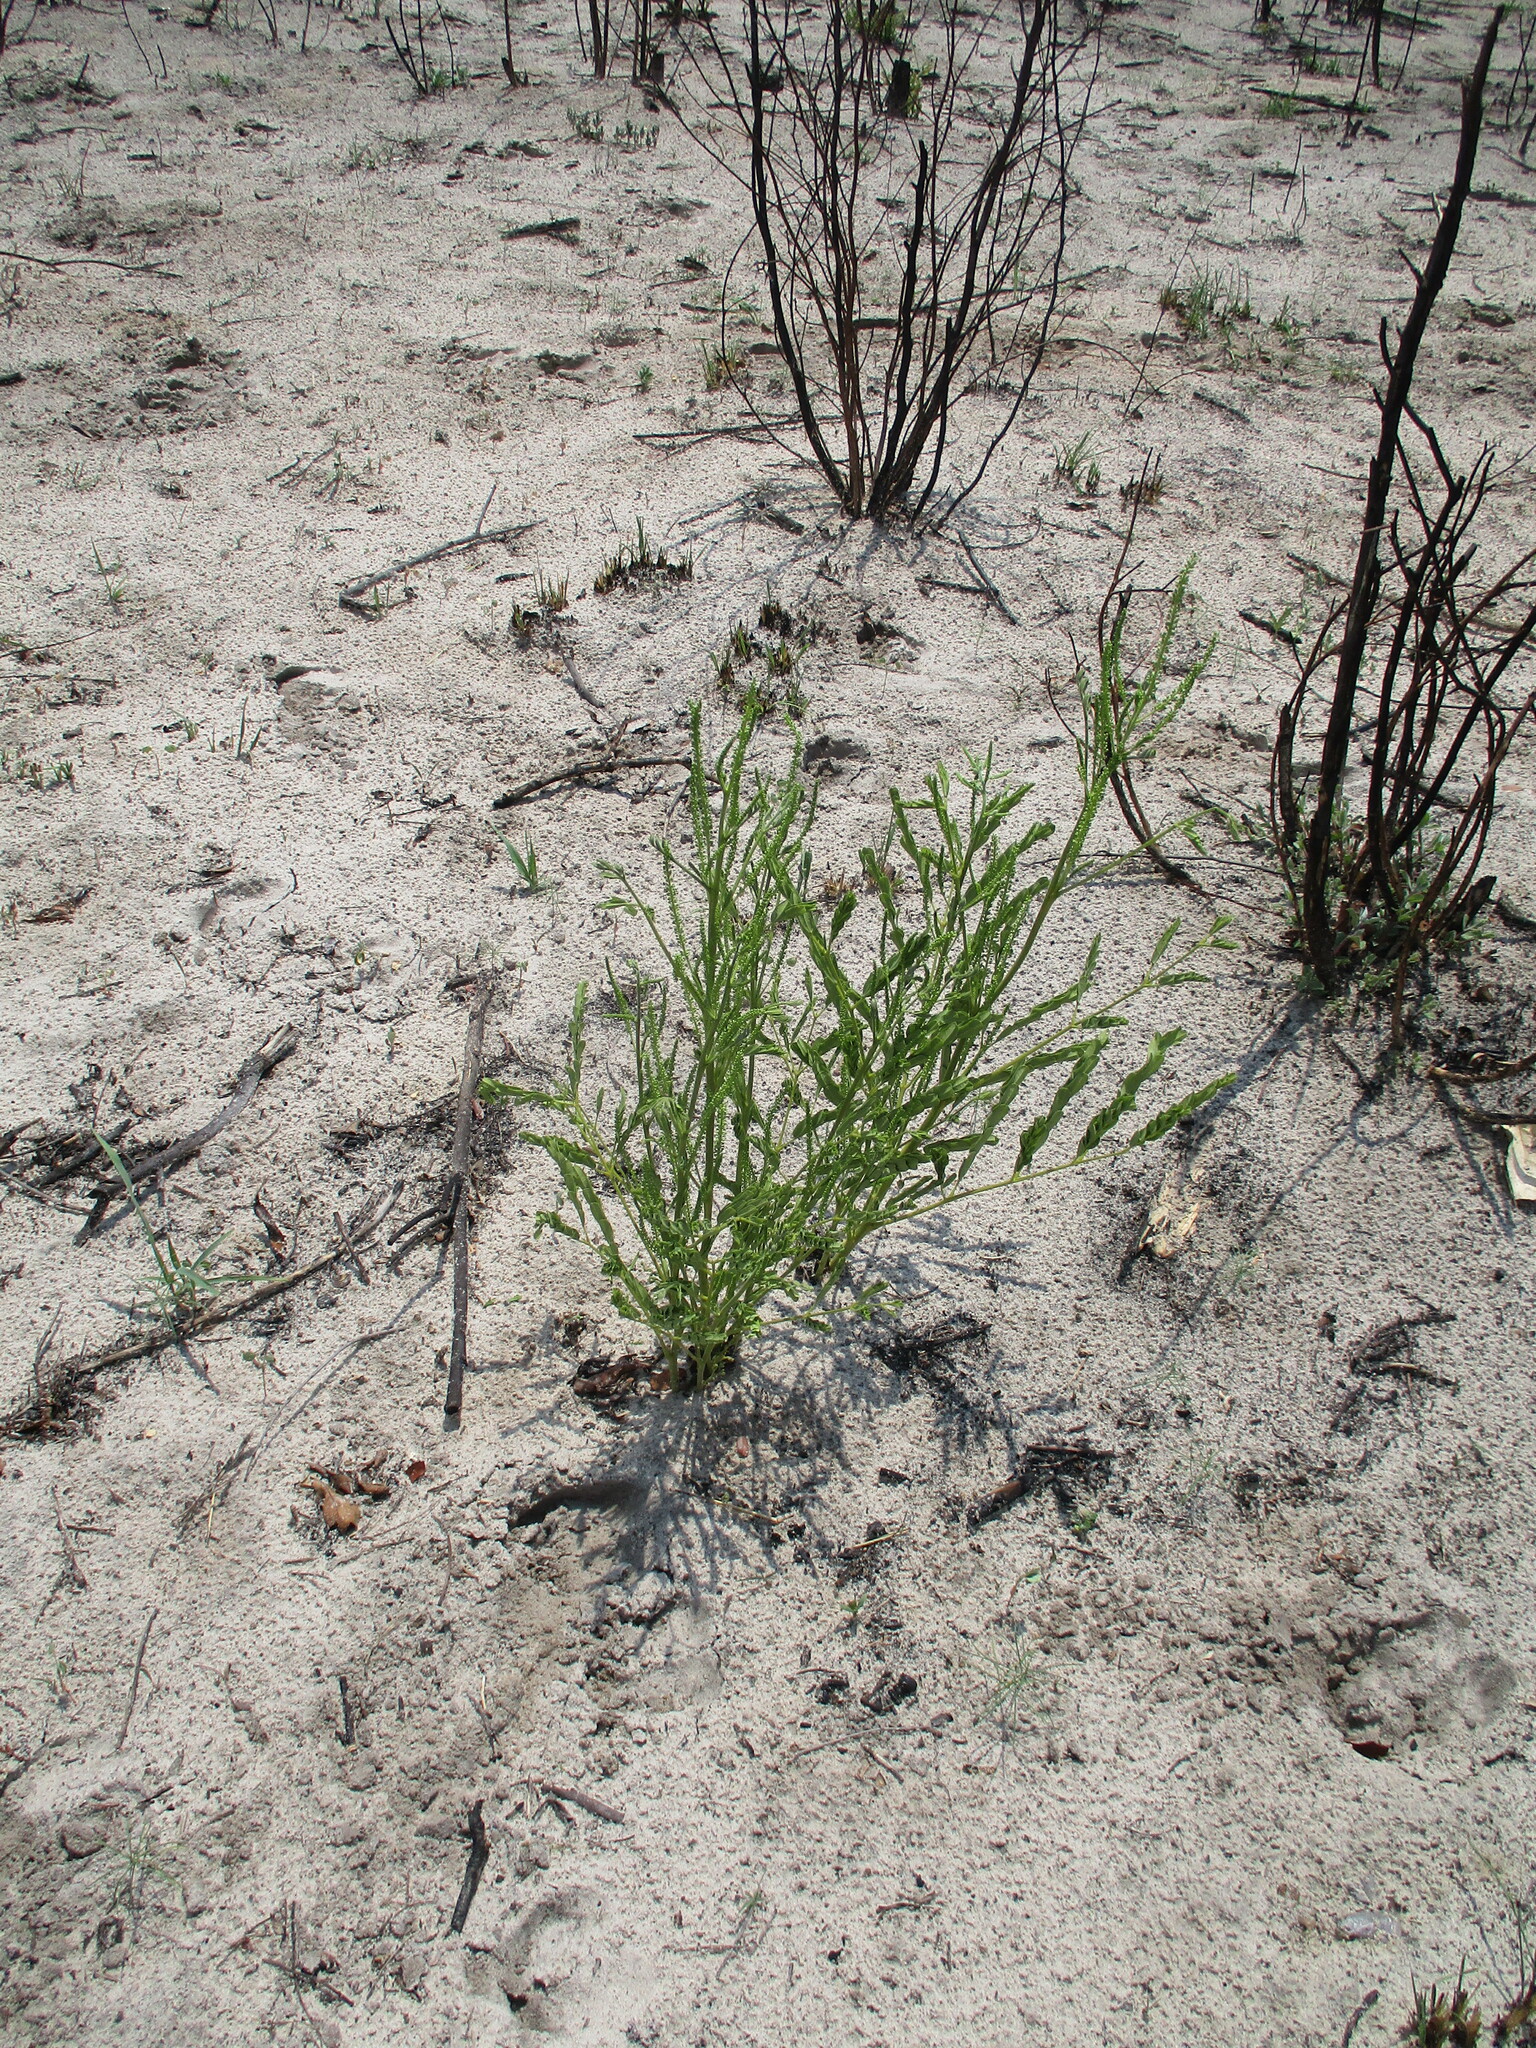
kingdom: Plantae
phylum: Tracheophyta
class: Magnoliopsida
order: Fabales
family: Fabaceae
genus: Entada
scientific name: Entada arenaria
